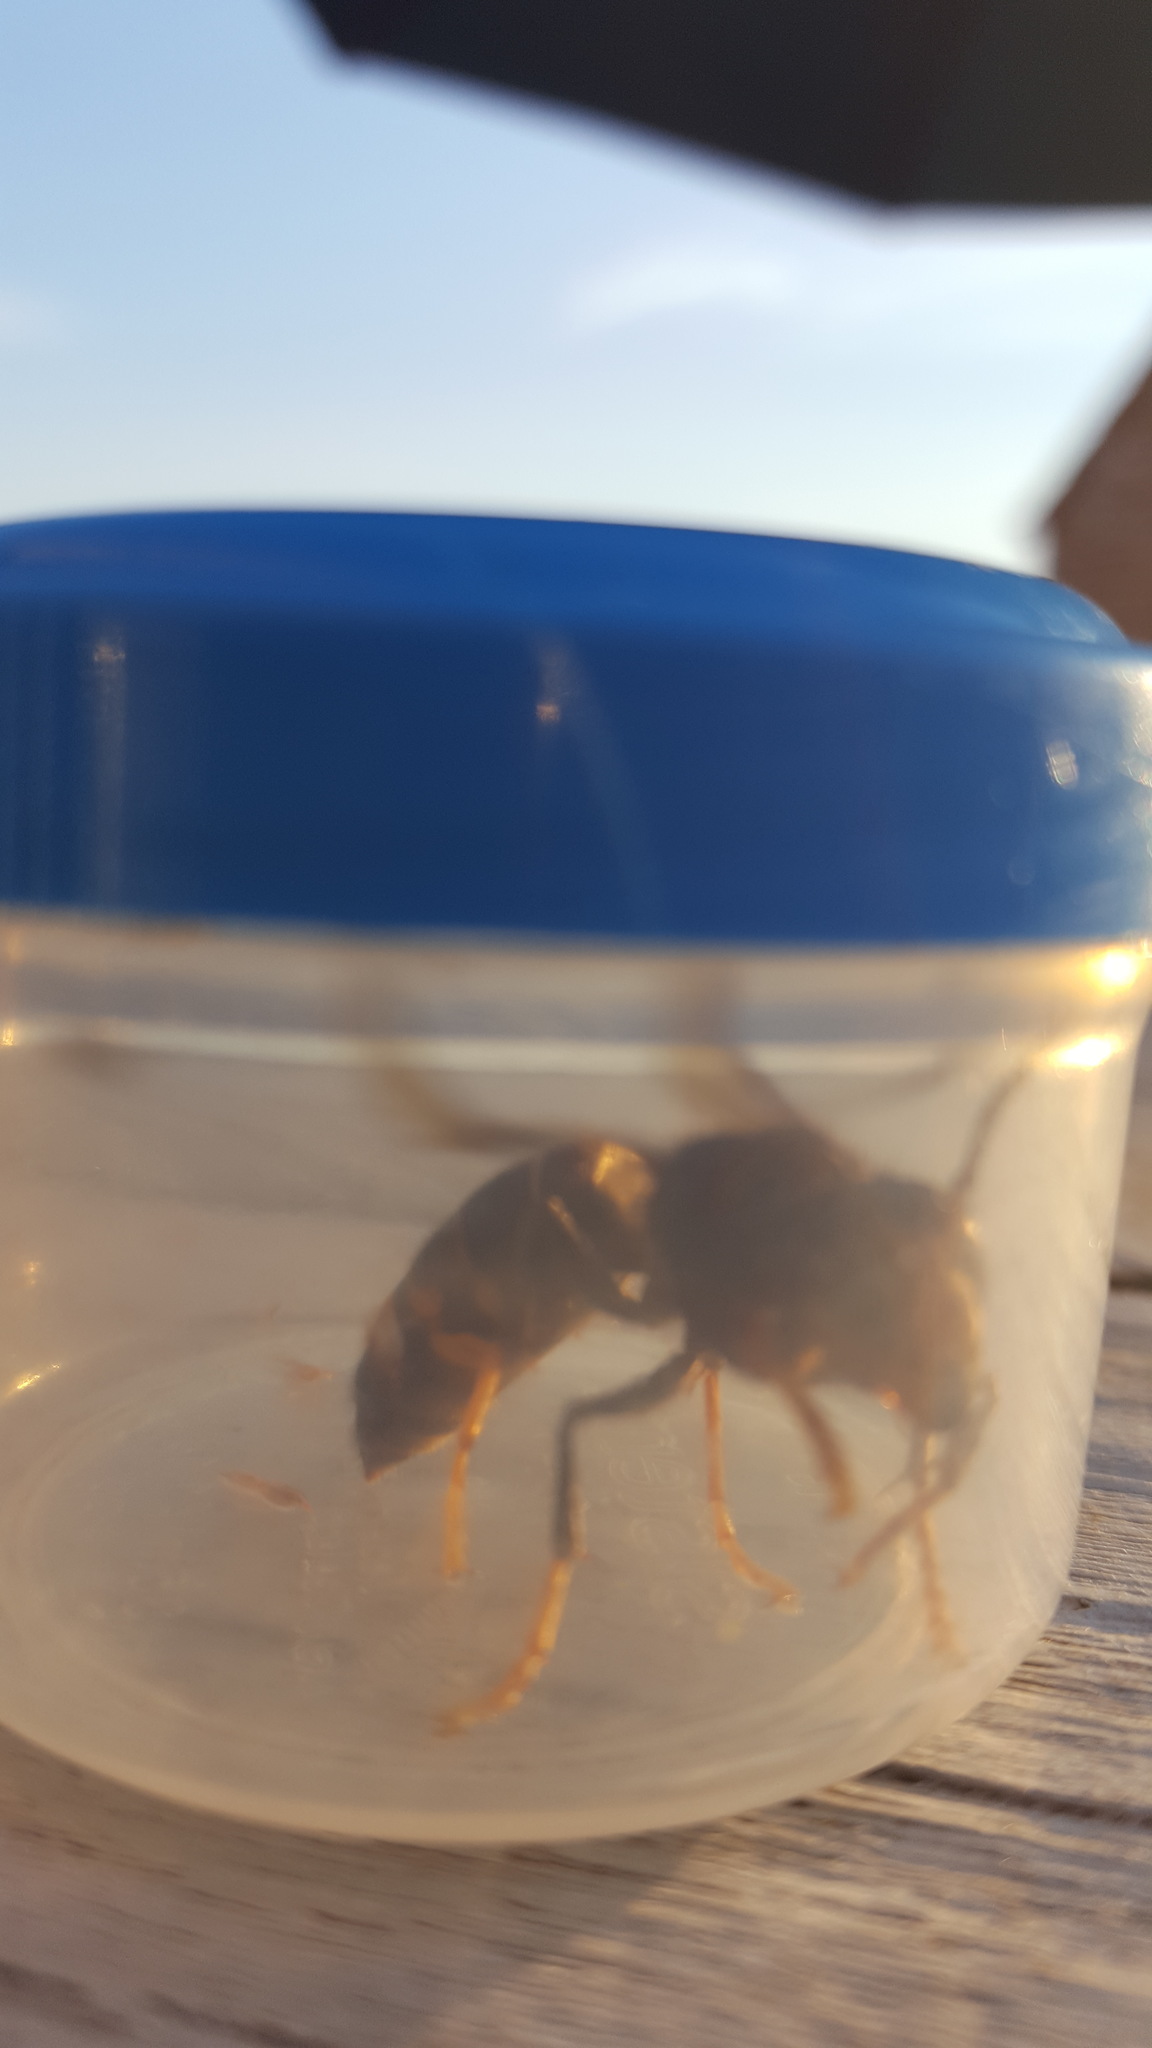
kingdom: Animalia
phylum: Arthropoda
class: Insecta
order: Hymenoptera
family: Vespidae
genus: Vespa
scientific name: Vespa velutina
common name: Asian hornet
